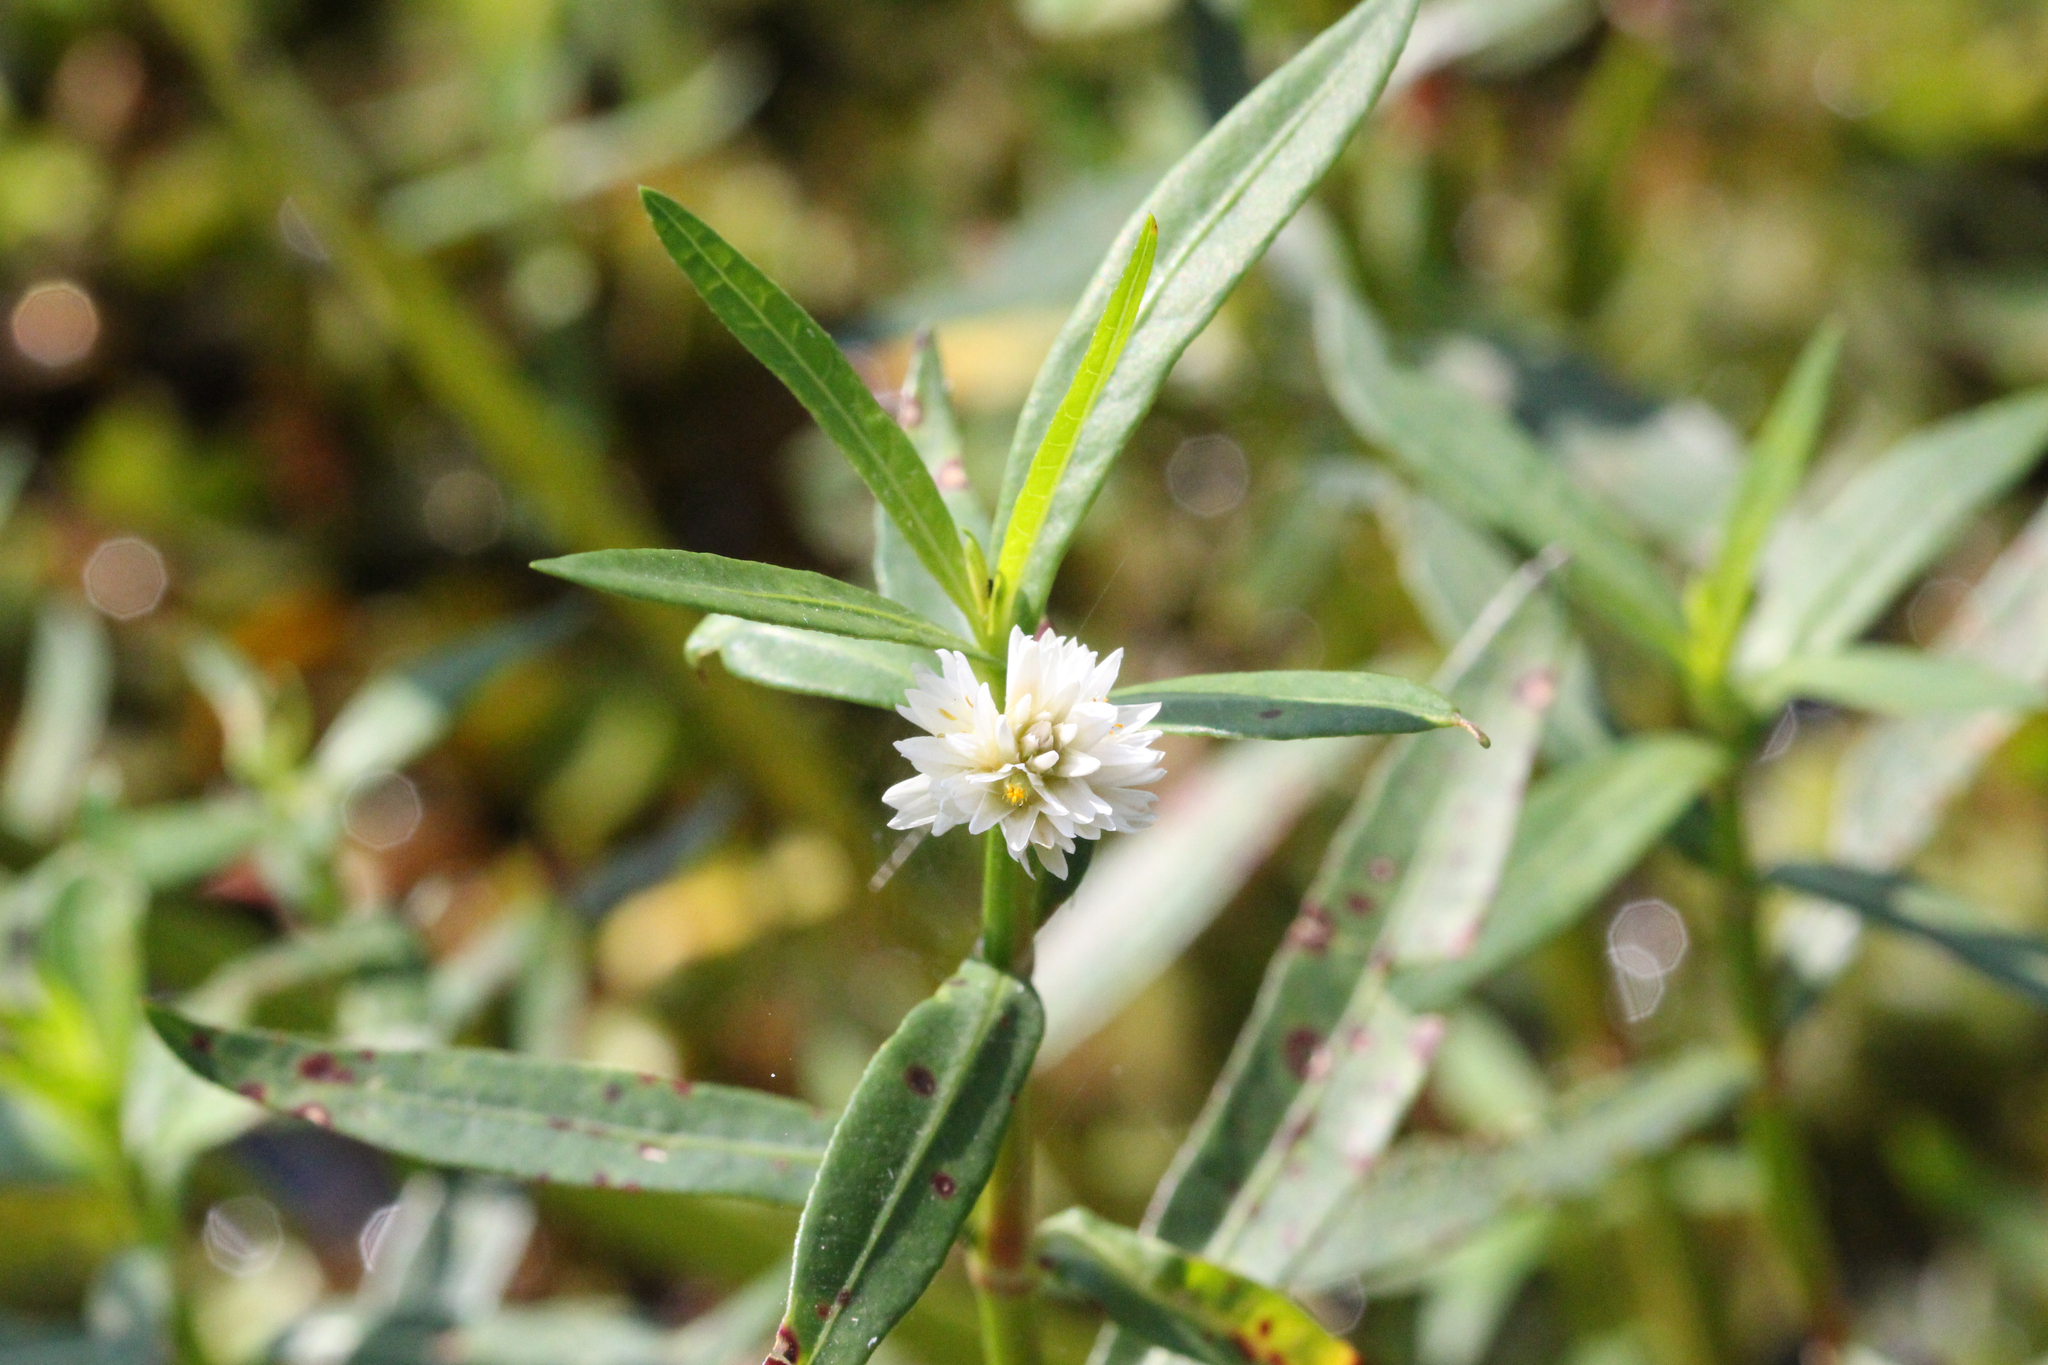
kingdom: Plantae
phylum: Tracheophyta
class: Magnoliopsida
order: Caryophyllales
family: Amaranthaceae
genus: Alternanthera
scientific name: Alternanthera philoxeroides
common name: Alligatorweed
